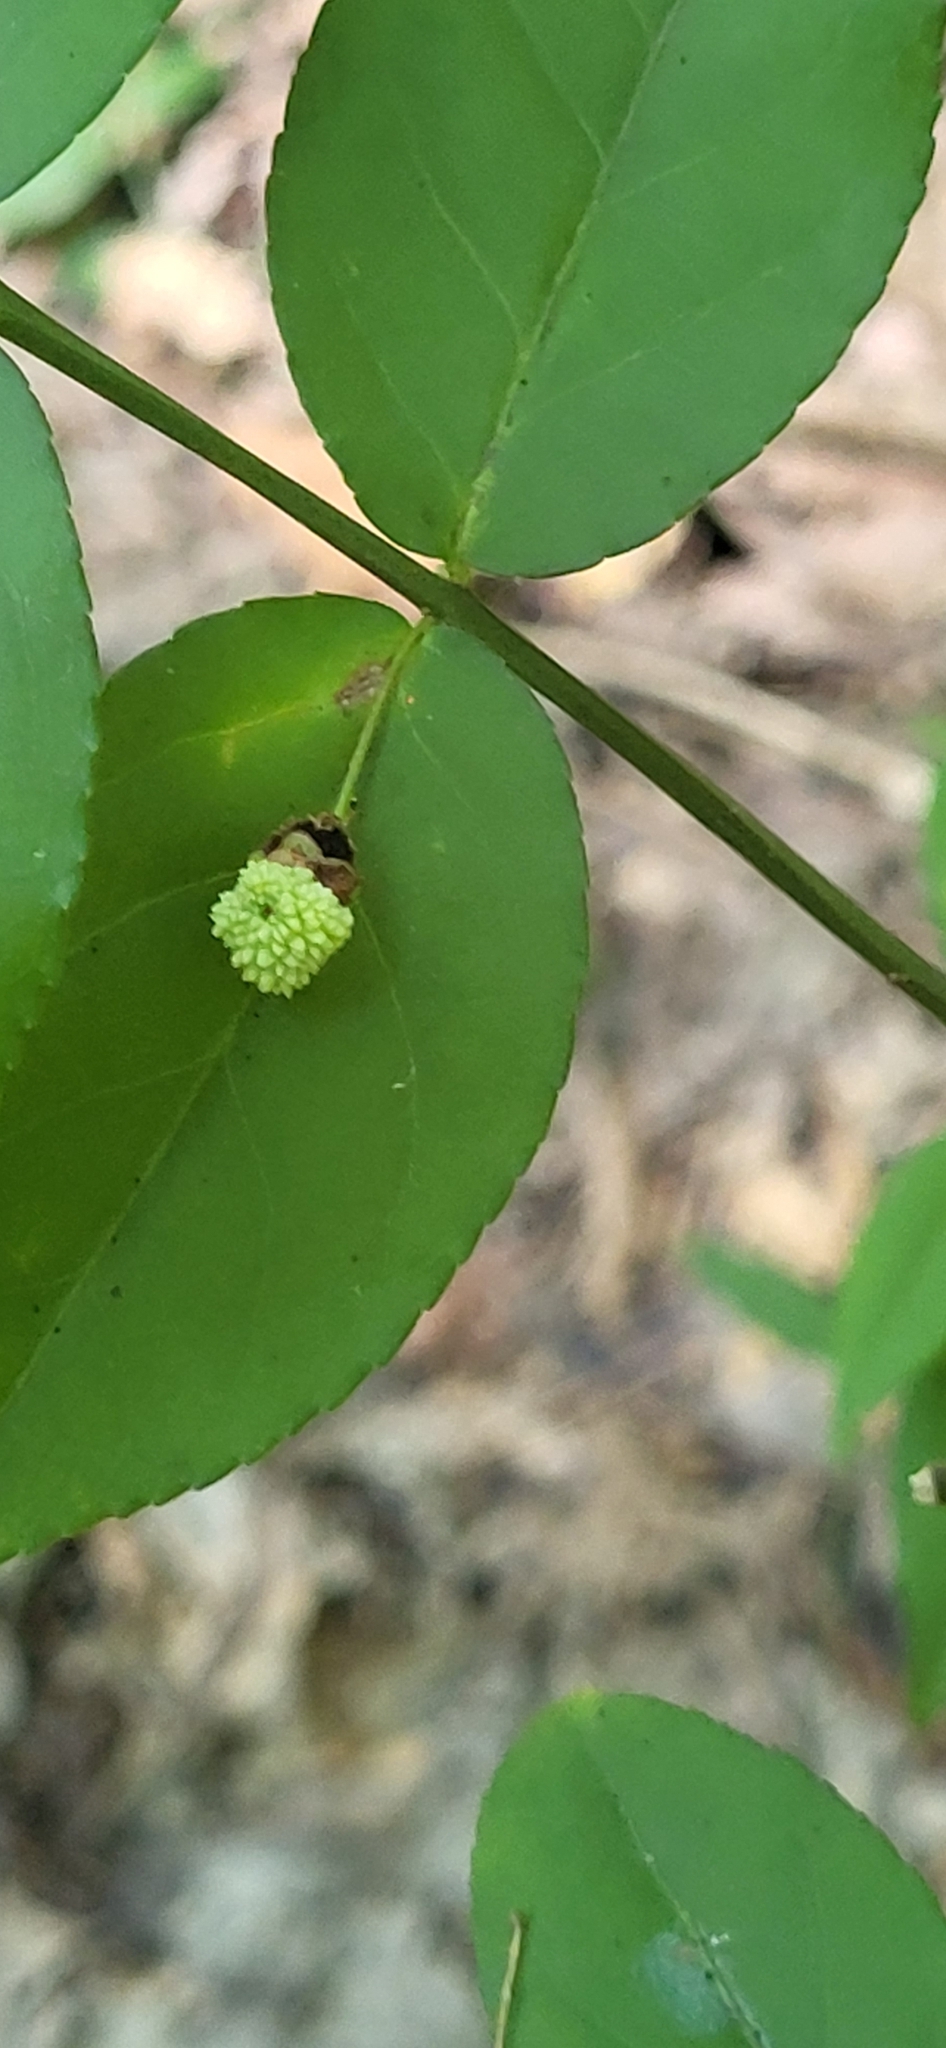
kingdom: Plantae
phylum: Tracheophyta
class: Magnoliopsida
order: Celastrales
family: Celastraceae
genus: Euonymus
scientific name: Euonymus americanus
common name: Bursting-heart
